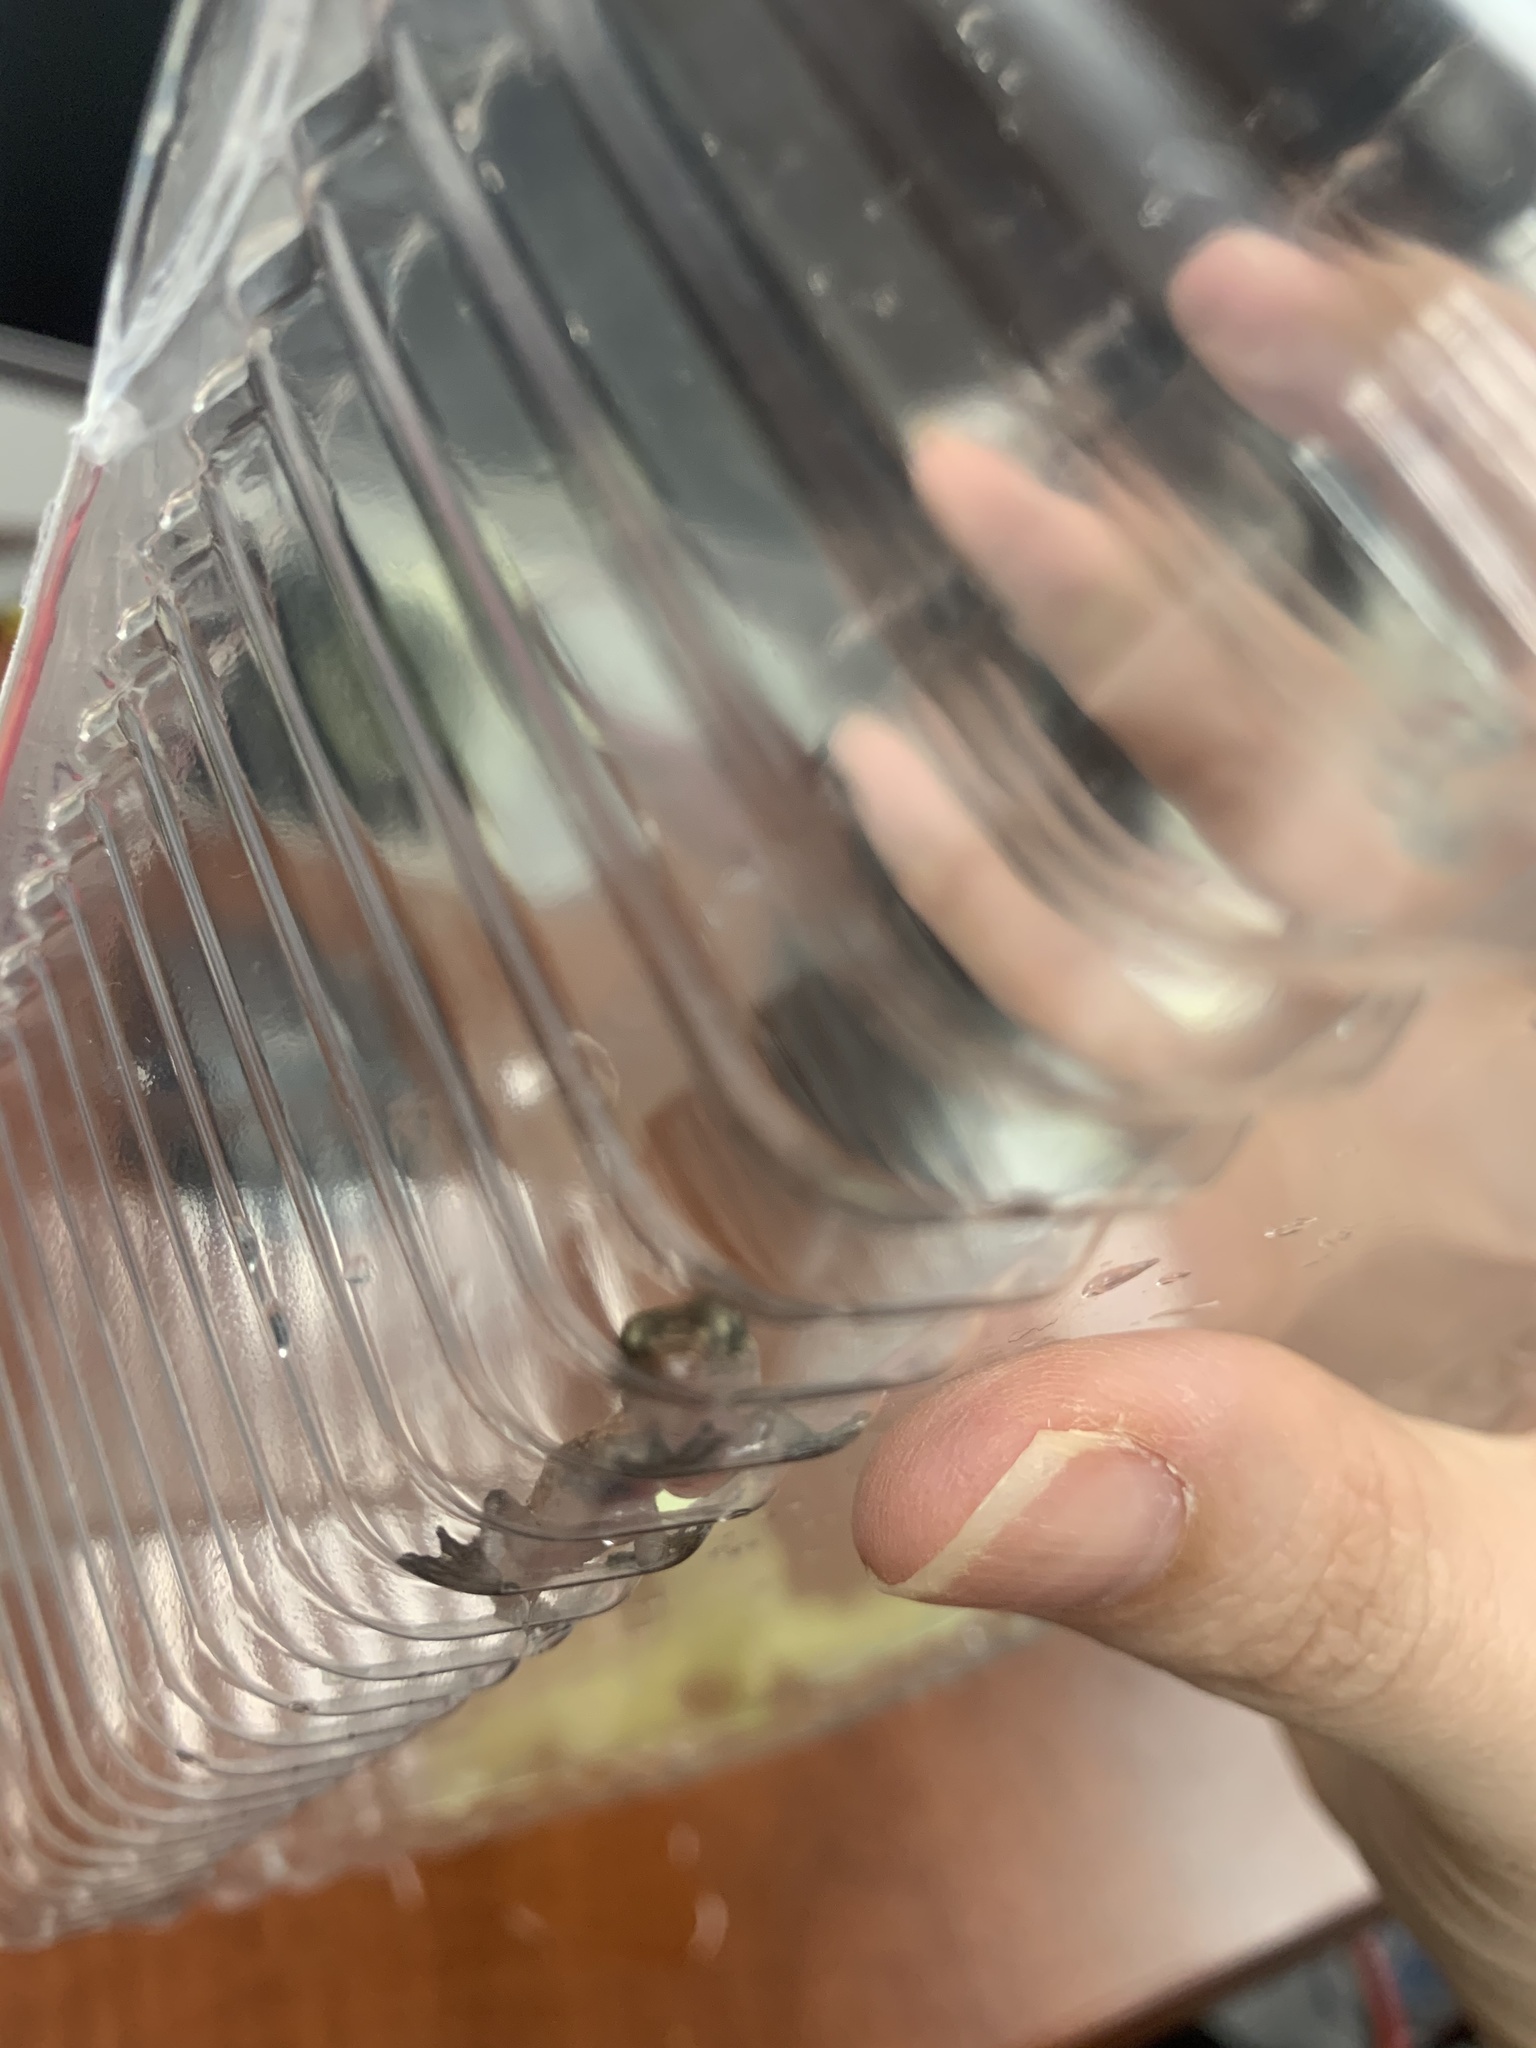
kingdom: Animalia
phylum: Chordata
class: Squamata
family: Gekkonidae
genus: Hemidactylus
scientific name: Hemidactylus turcicus
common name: Turkish gecko
